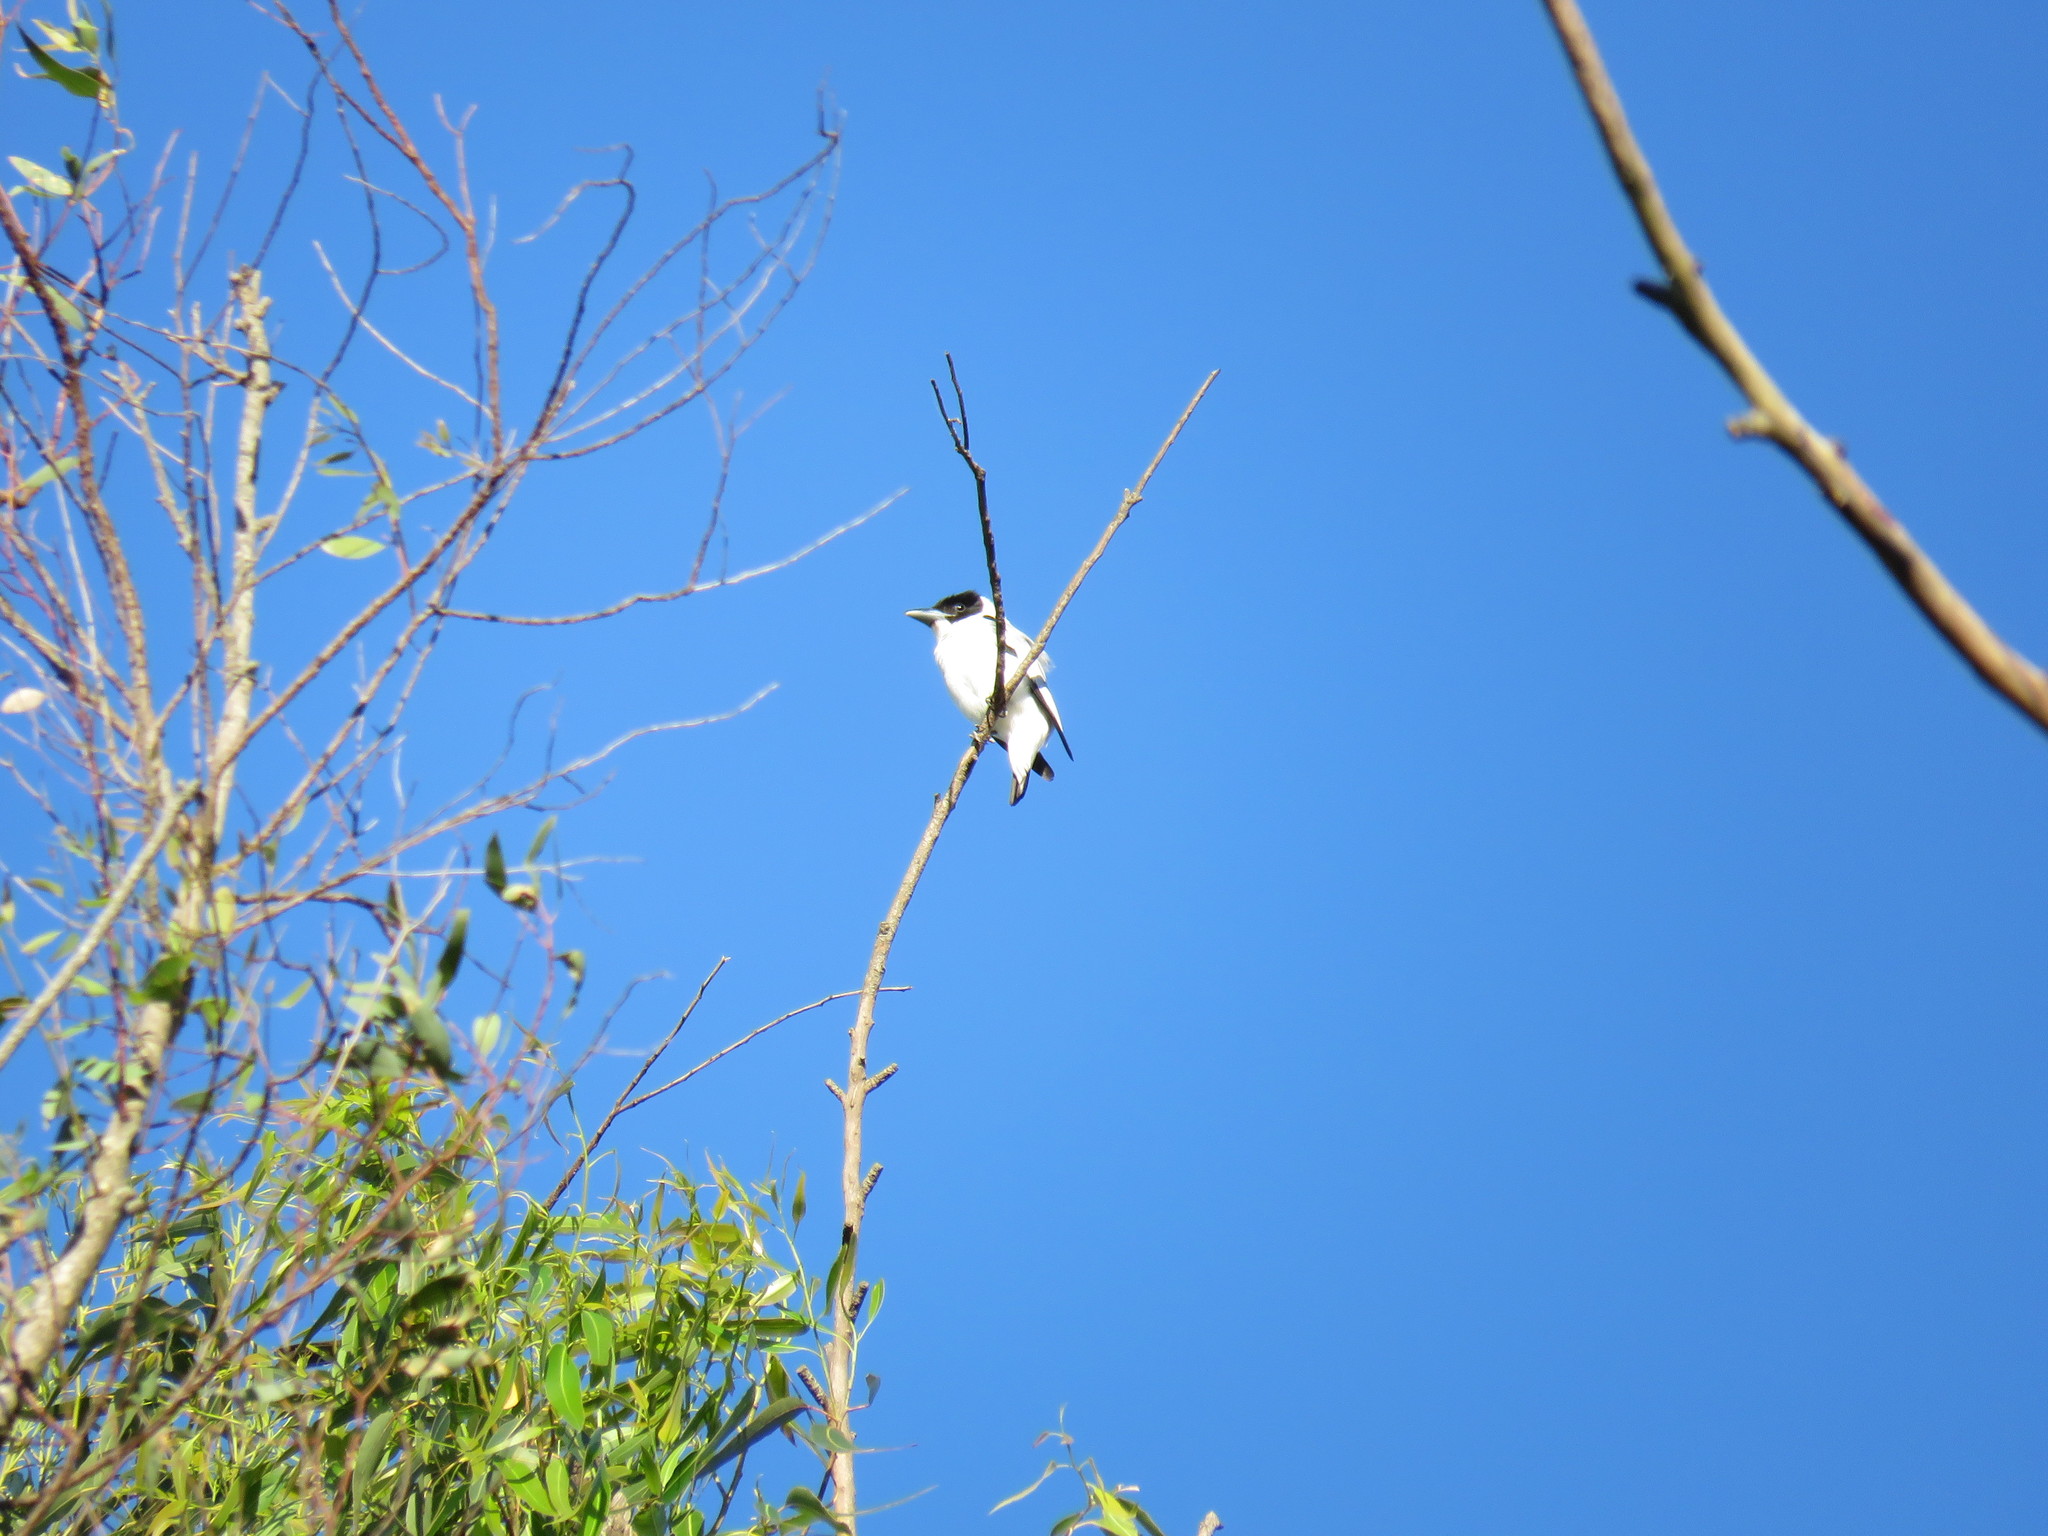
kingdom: Animalia
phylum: Chordata
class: Aves
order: Passeriformes
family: Cotingidae
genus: Tityra
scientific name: Tityra inquisitor
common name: Black-crowned tityra
